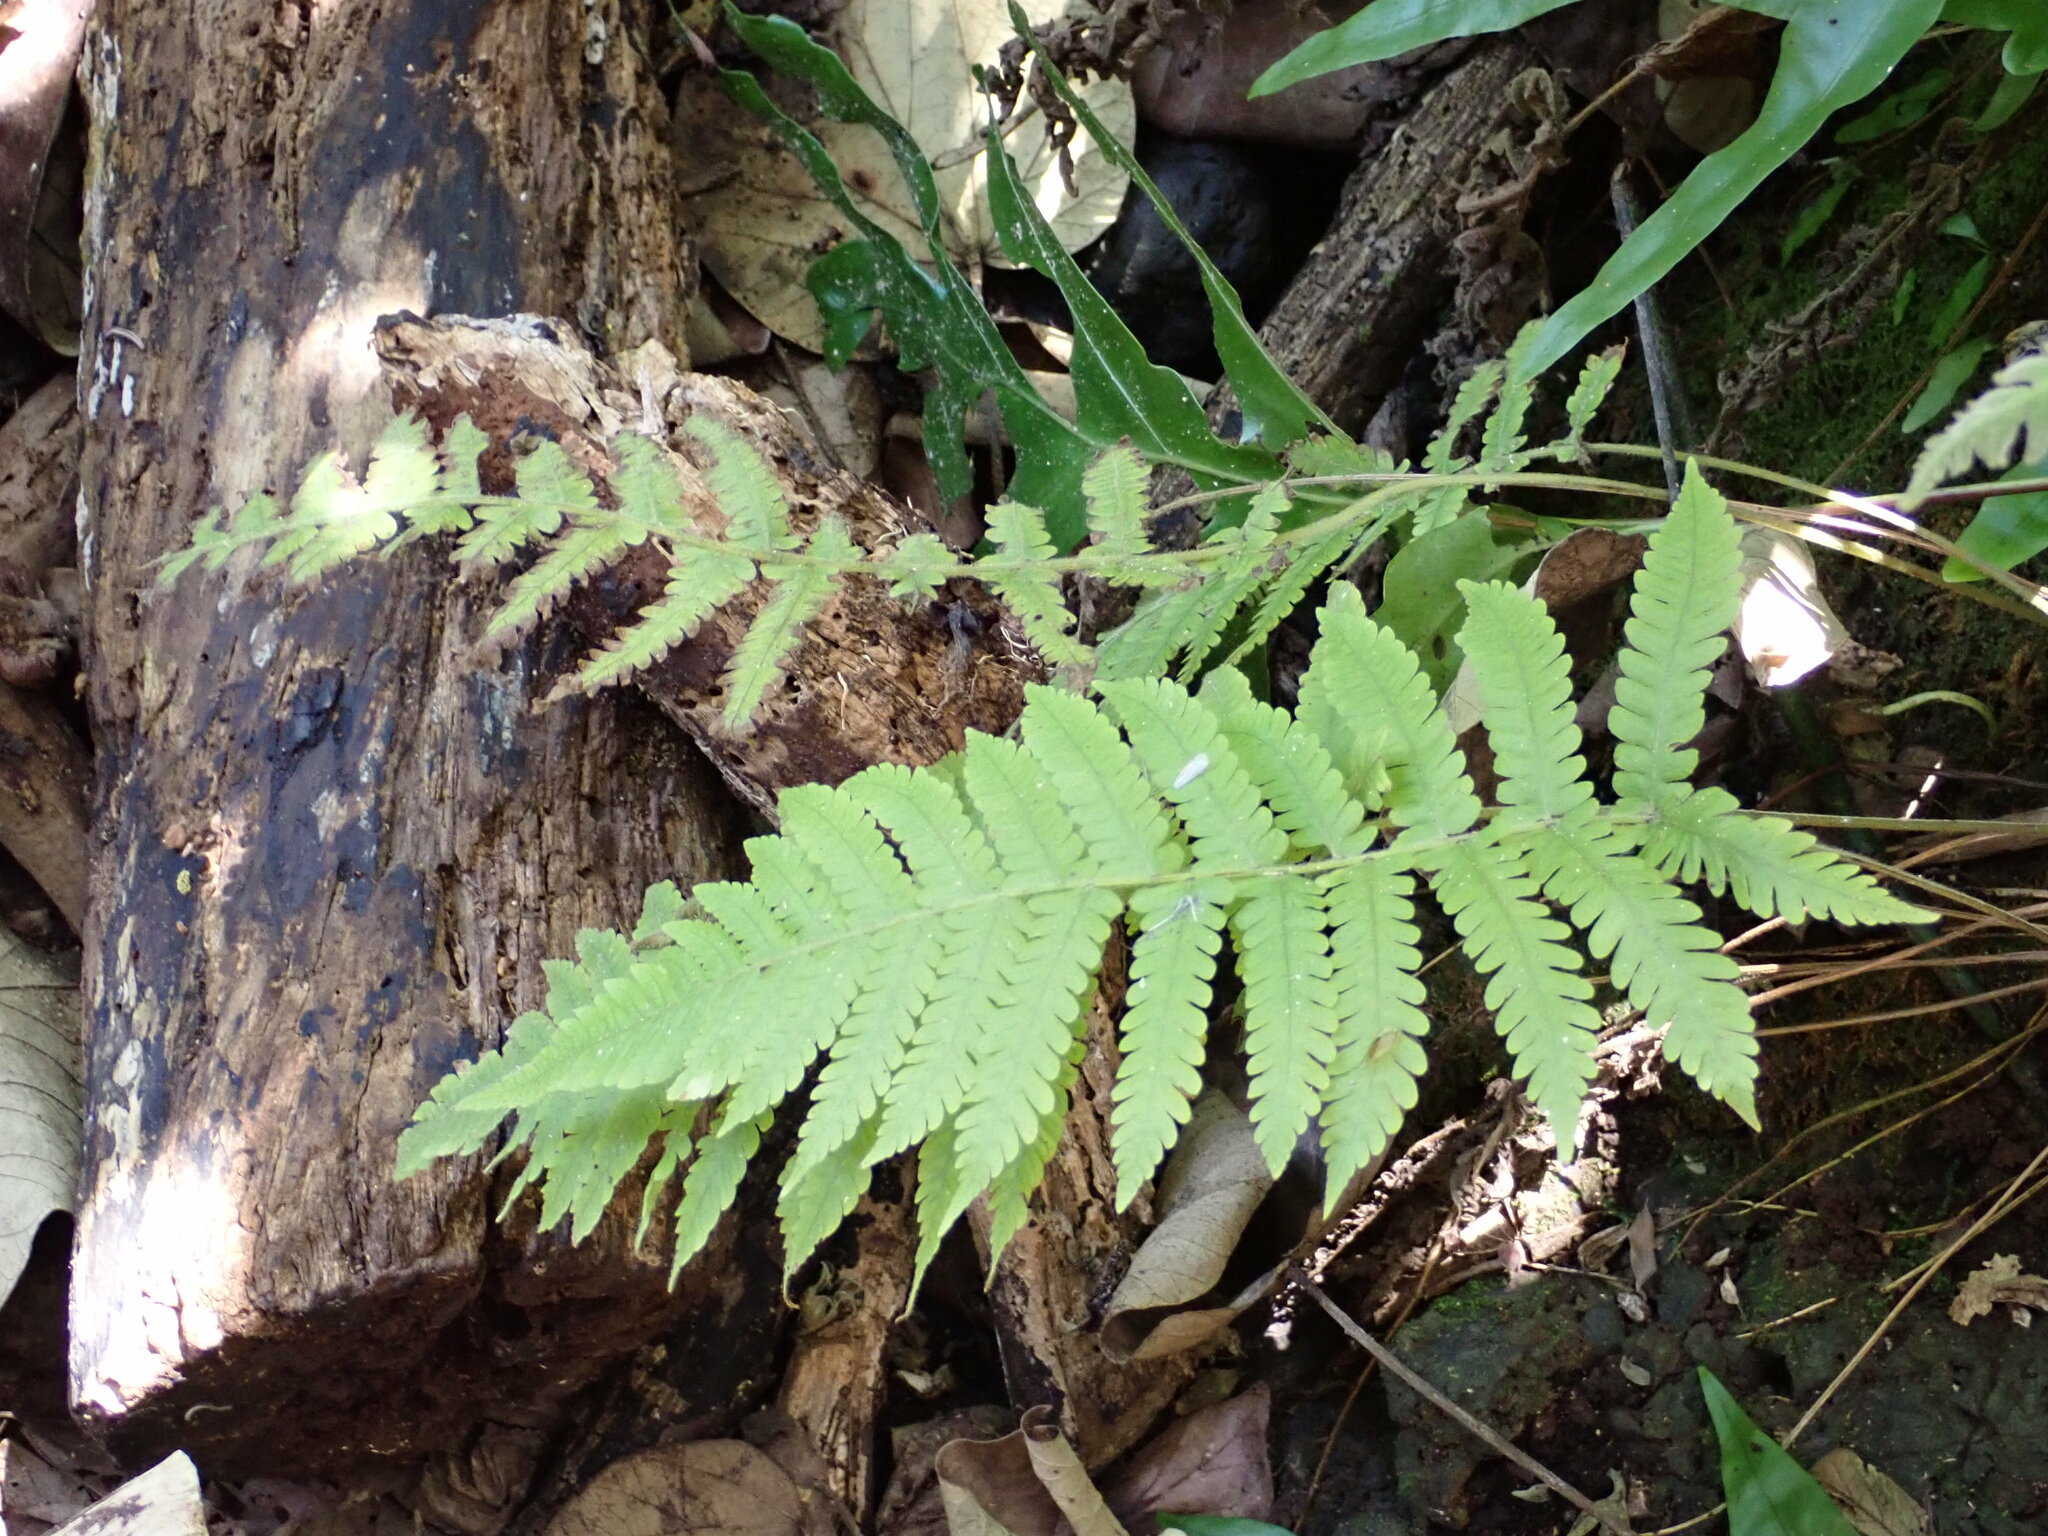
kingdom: Plantae
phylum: Tracheophyta
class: Polypodiopsida
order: Polypodiales
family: Thelypteridaceae
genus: Christella
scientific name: Christella parasitica
